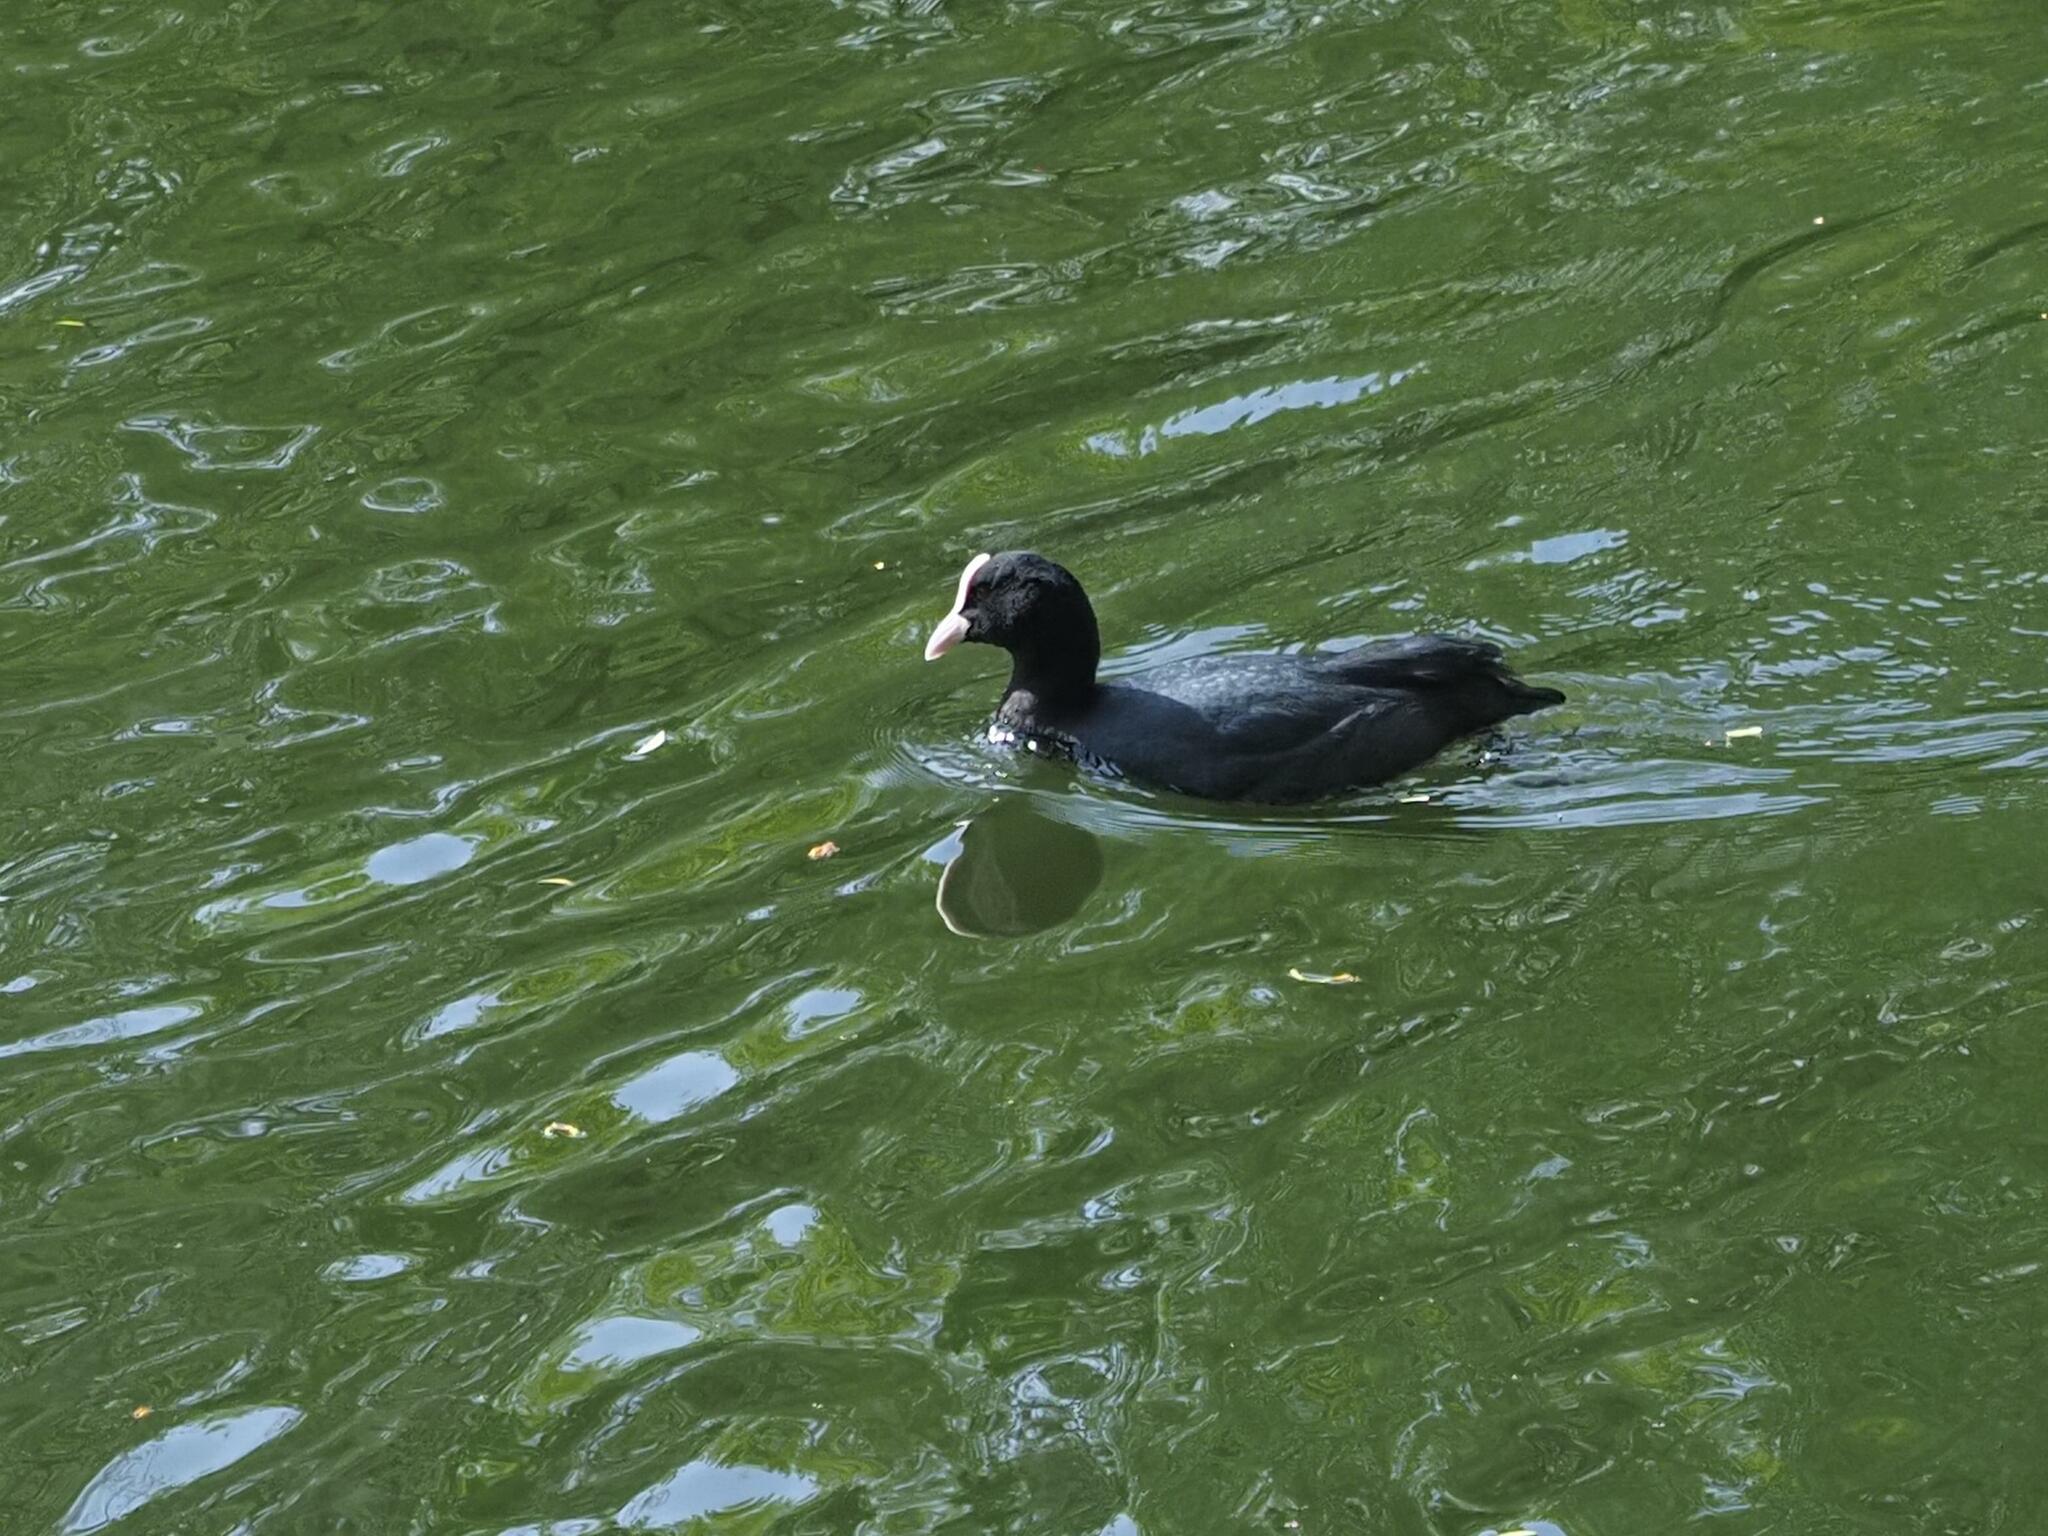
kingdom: Animalia
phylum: Chordata
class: Aves
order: Gruiformes
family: Rallidae
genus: Fulica
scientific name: Fulica atra
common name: Eurasian coot
